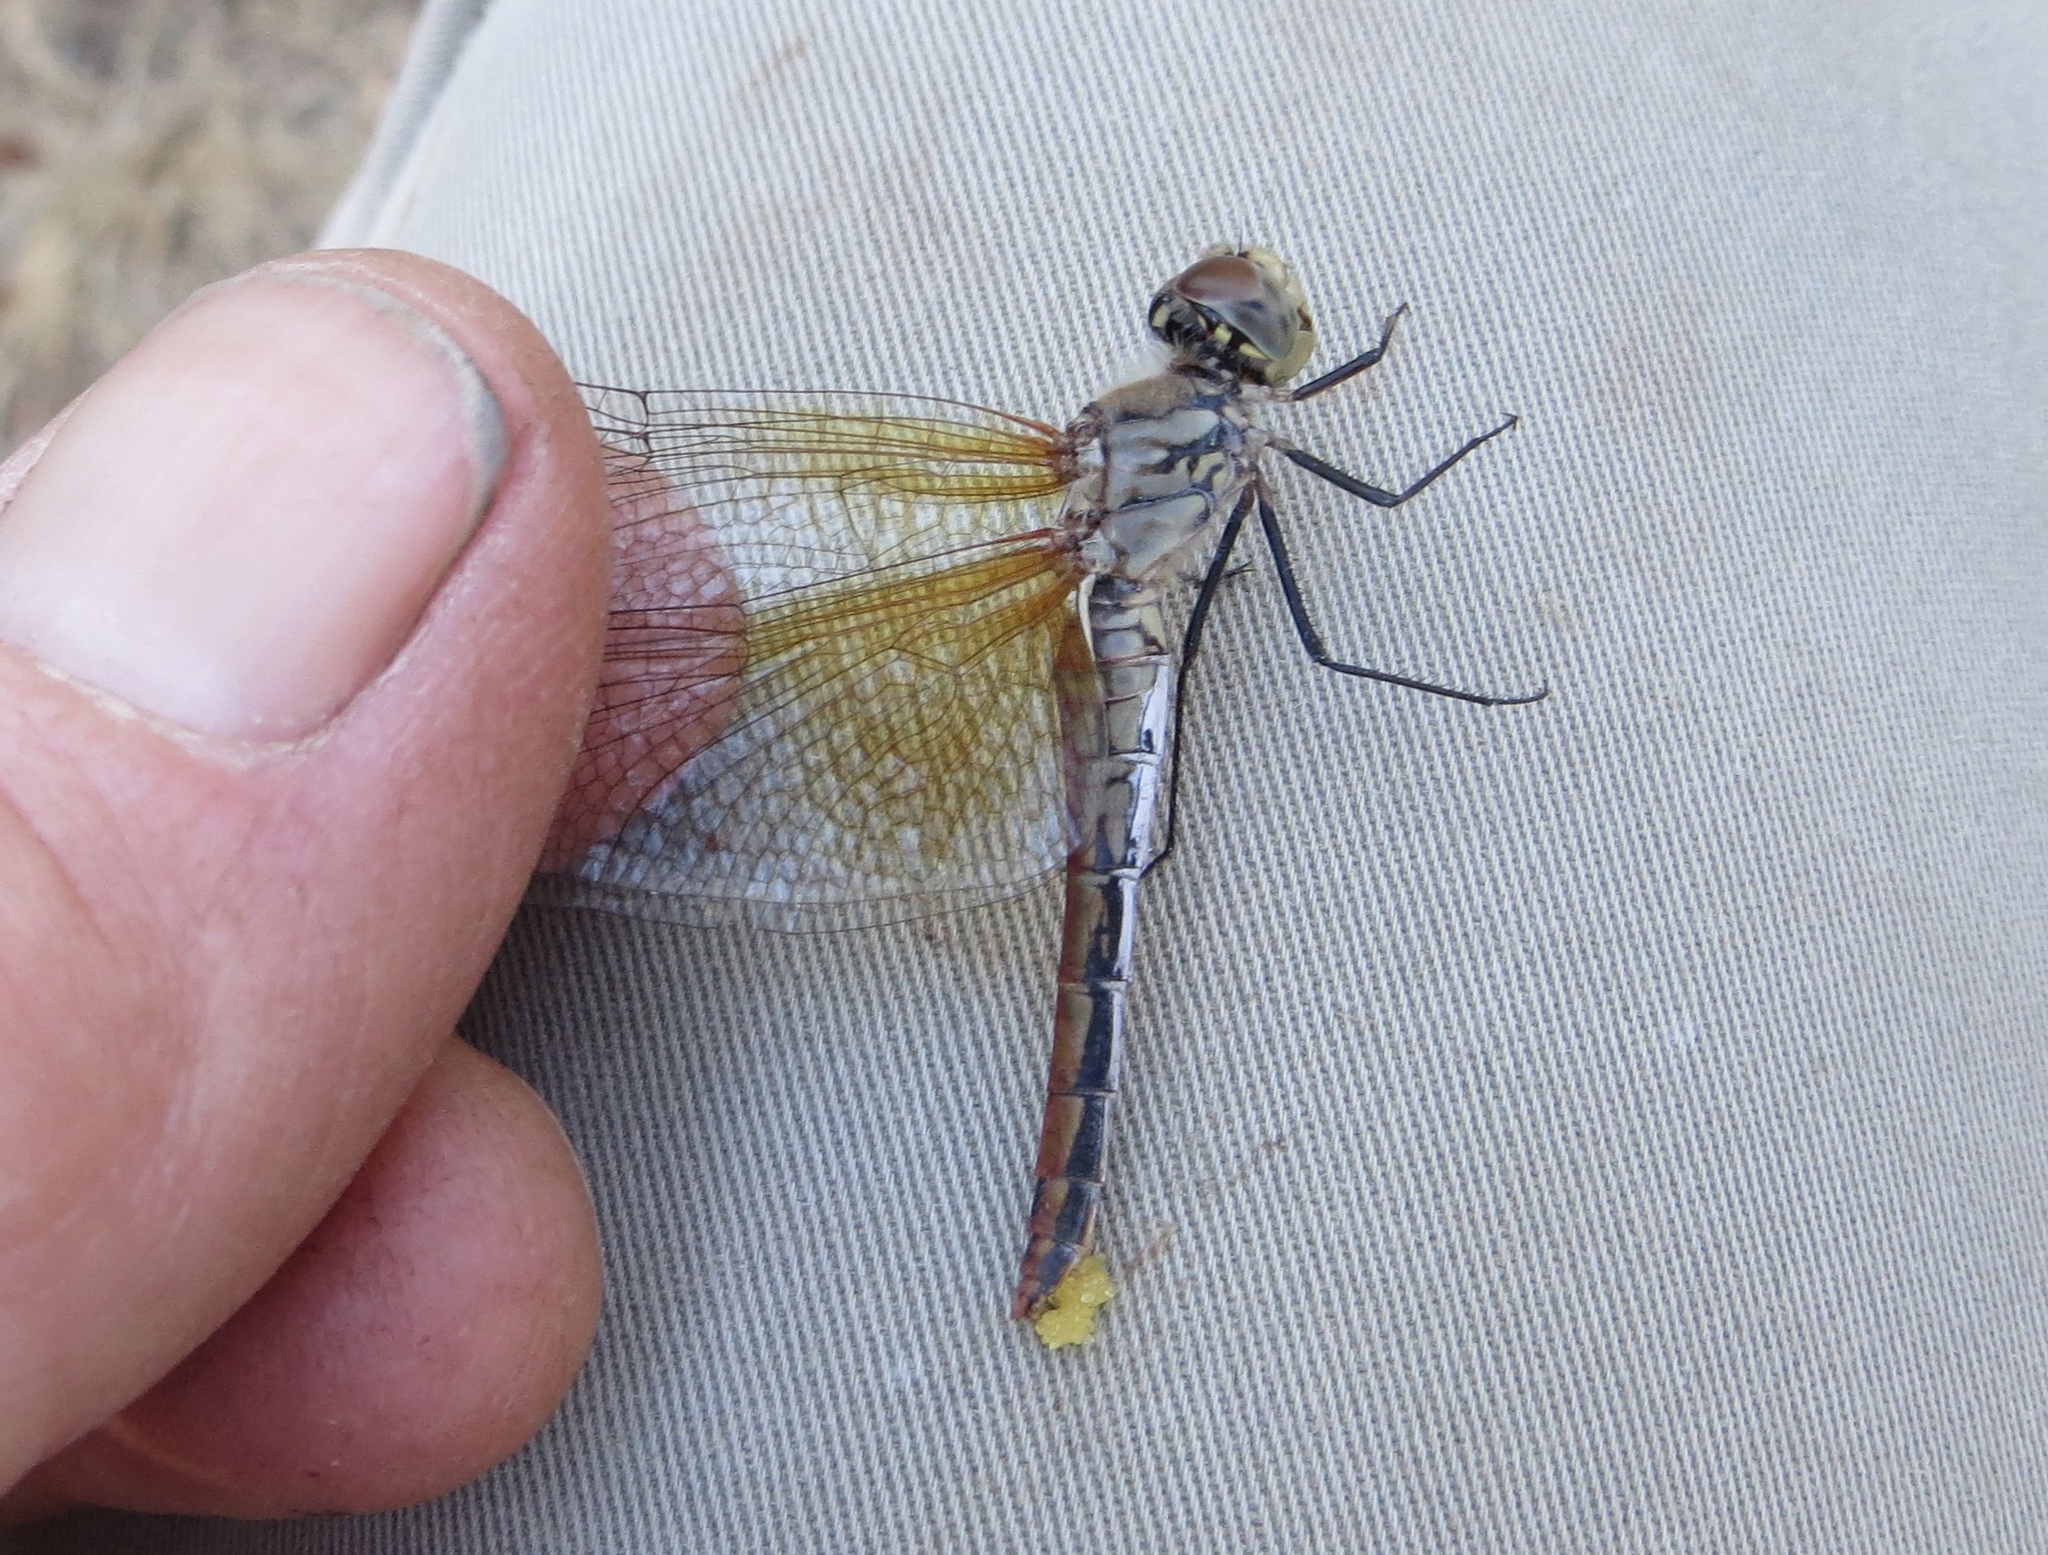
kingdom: Animalia
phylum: Arthropoda
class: Insecta
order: Odonata
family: Libellulidae
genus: Sympetrum
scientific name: Sympetrum semicinctum
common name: Band-winged meadowhawk
